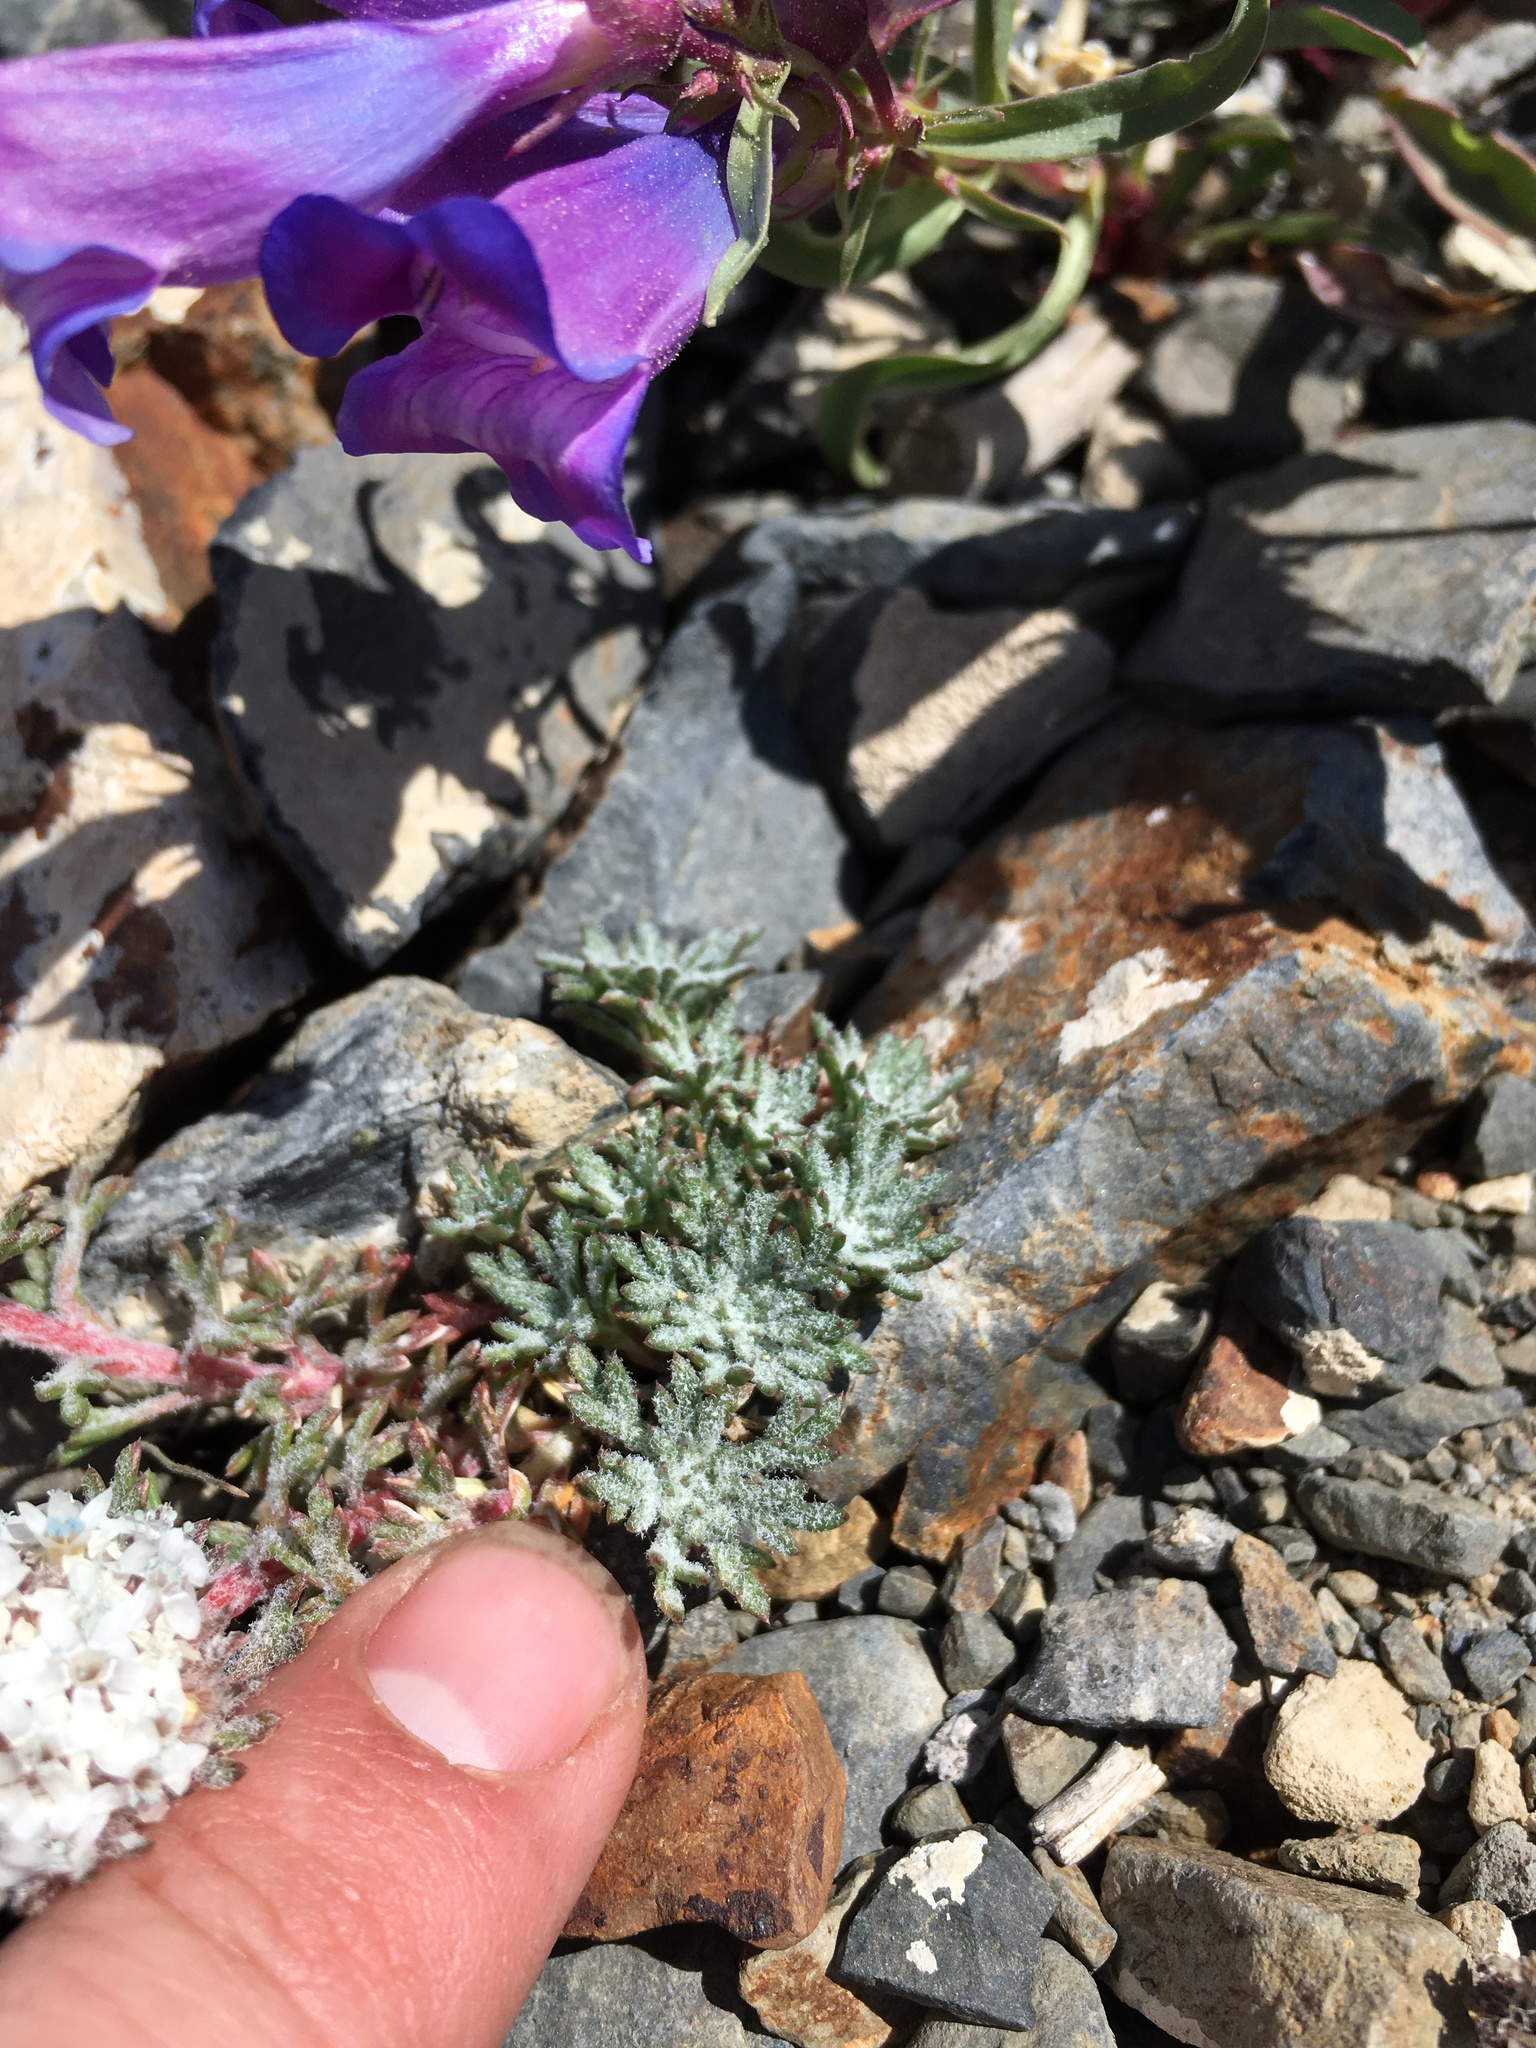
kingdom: Plantae
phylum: Tracheophyta
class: Magnoliopsida
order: Ericales
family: Polemoniaceae
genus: Ipomopsis
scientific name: Ipomopsis congesta
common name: Ball-head gilia
